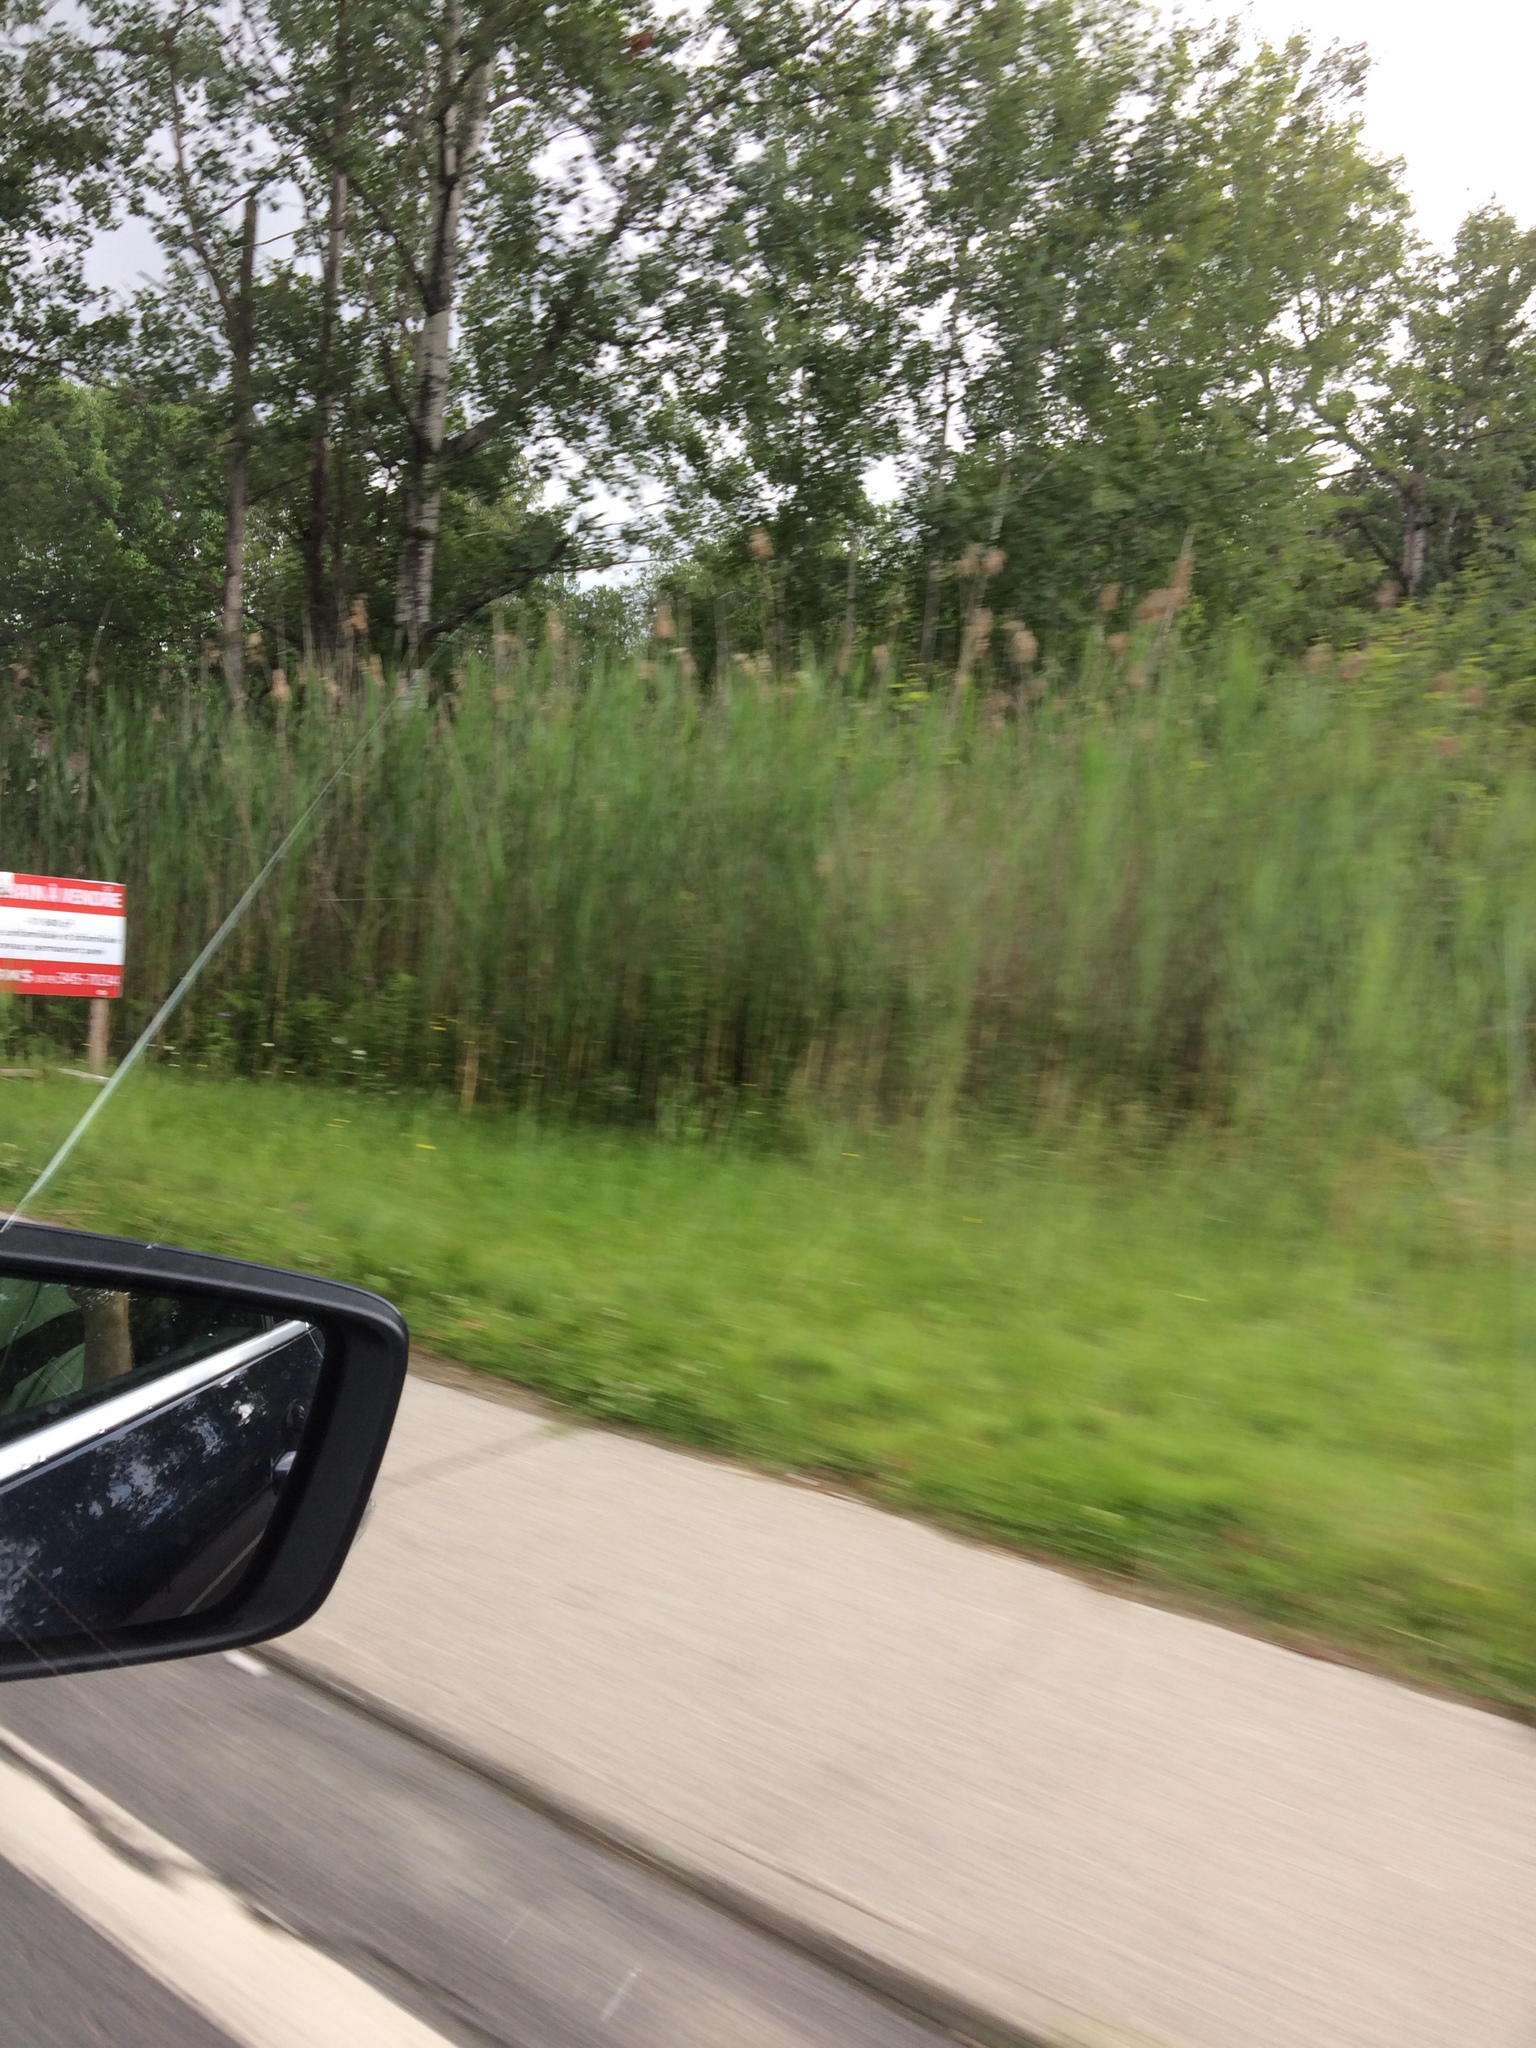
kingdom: Plantae
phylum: Tracheophyta
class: Liliopsida
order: Poales
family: Poaceae
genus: Phragmites
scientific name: Phragmites australis
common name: Common reed
